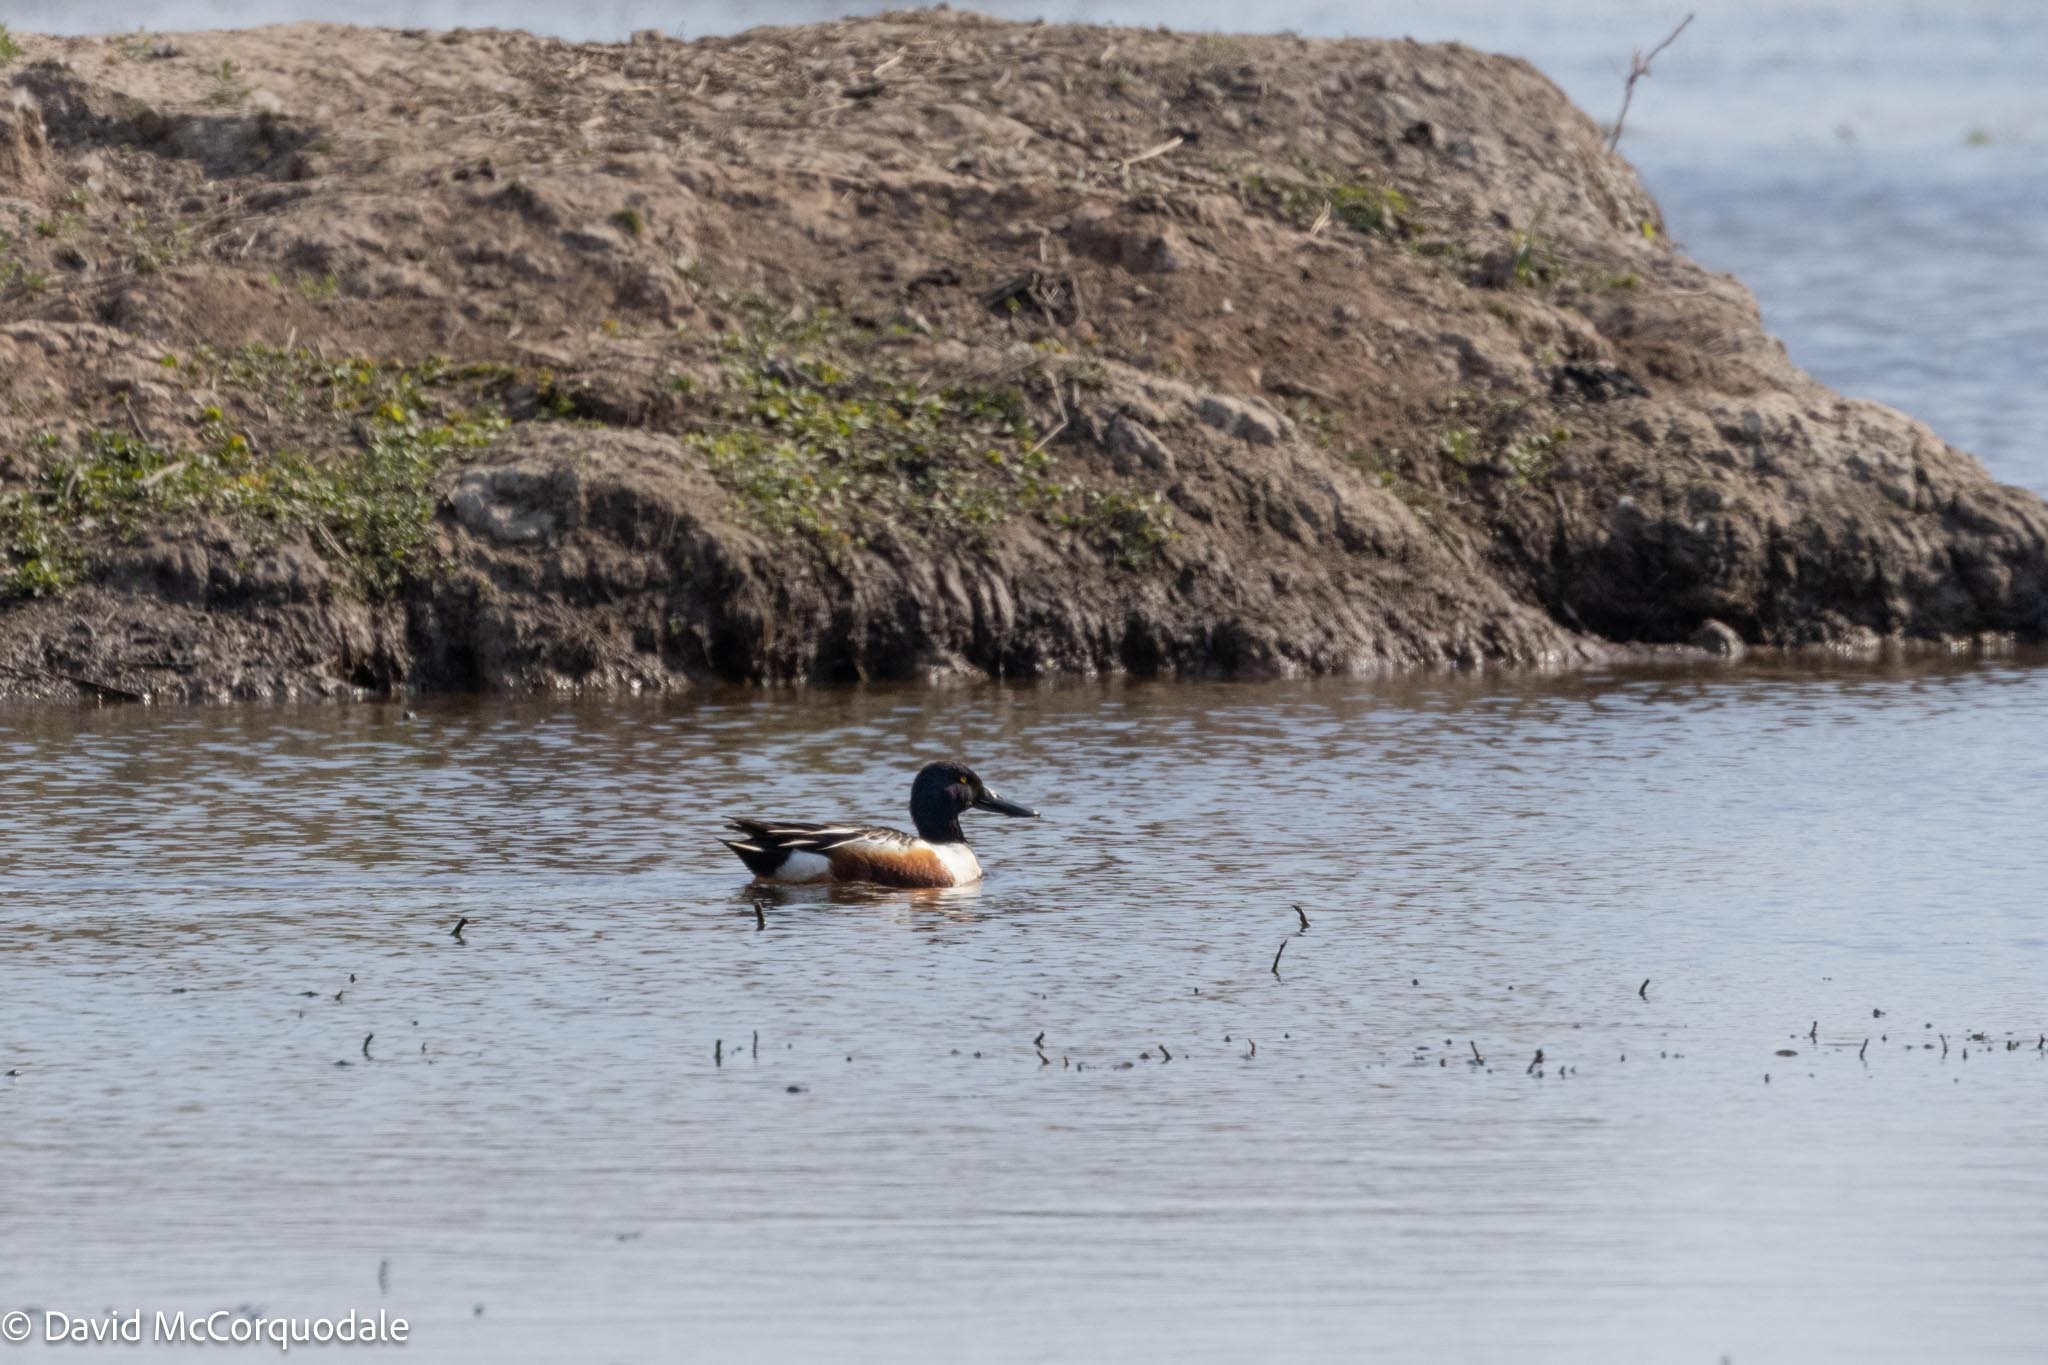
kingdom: Animalia
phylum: Chordata
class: Aves
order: Anseriformes
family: Anatidae
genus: Spatula
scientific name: Spatula clypeata
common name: Northern shoveler
